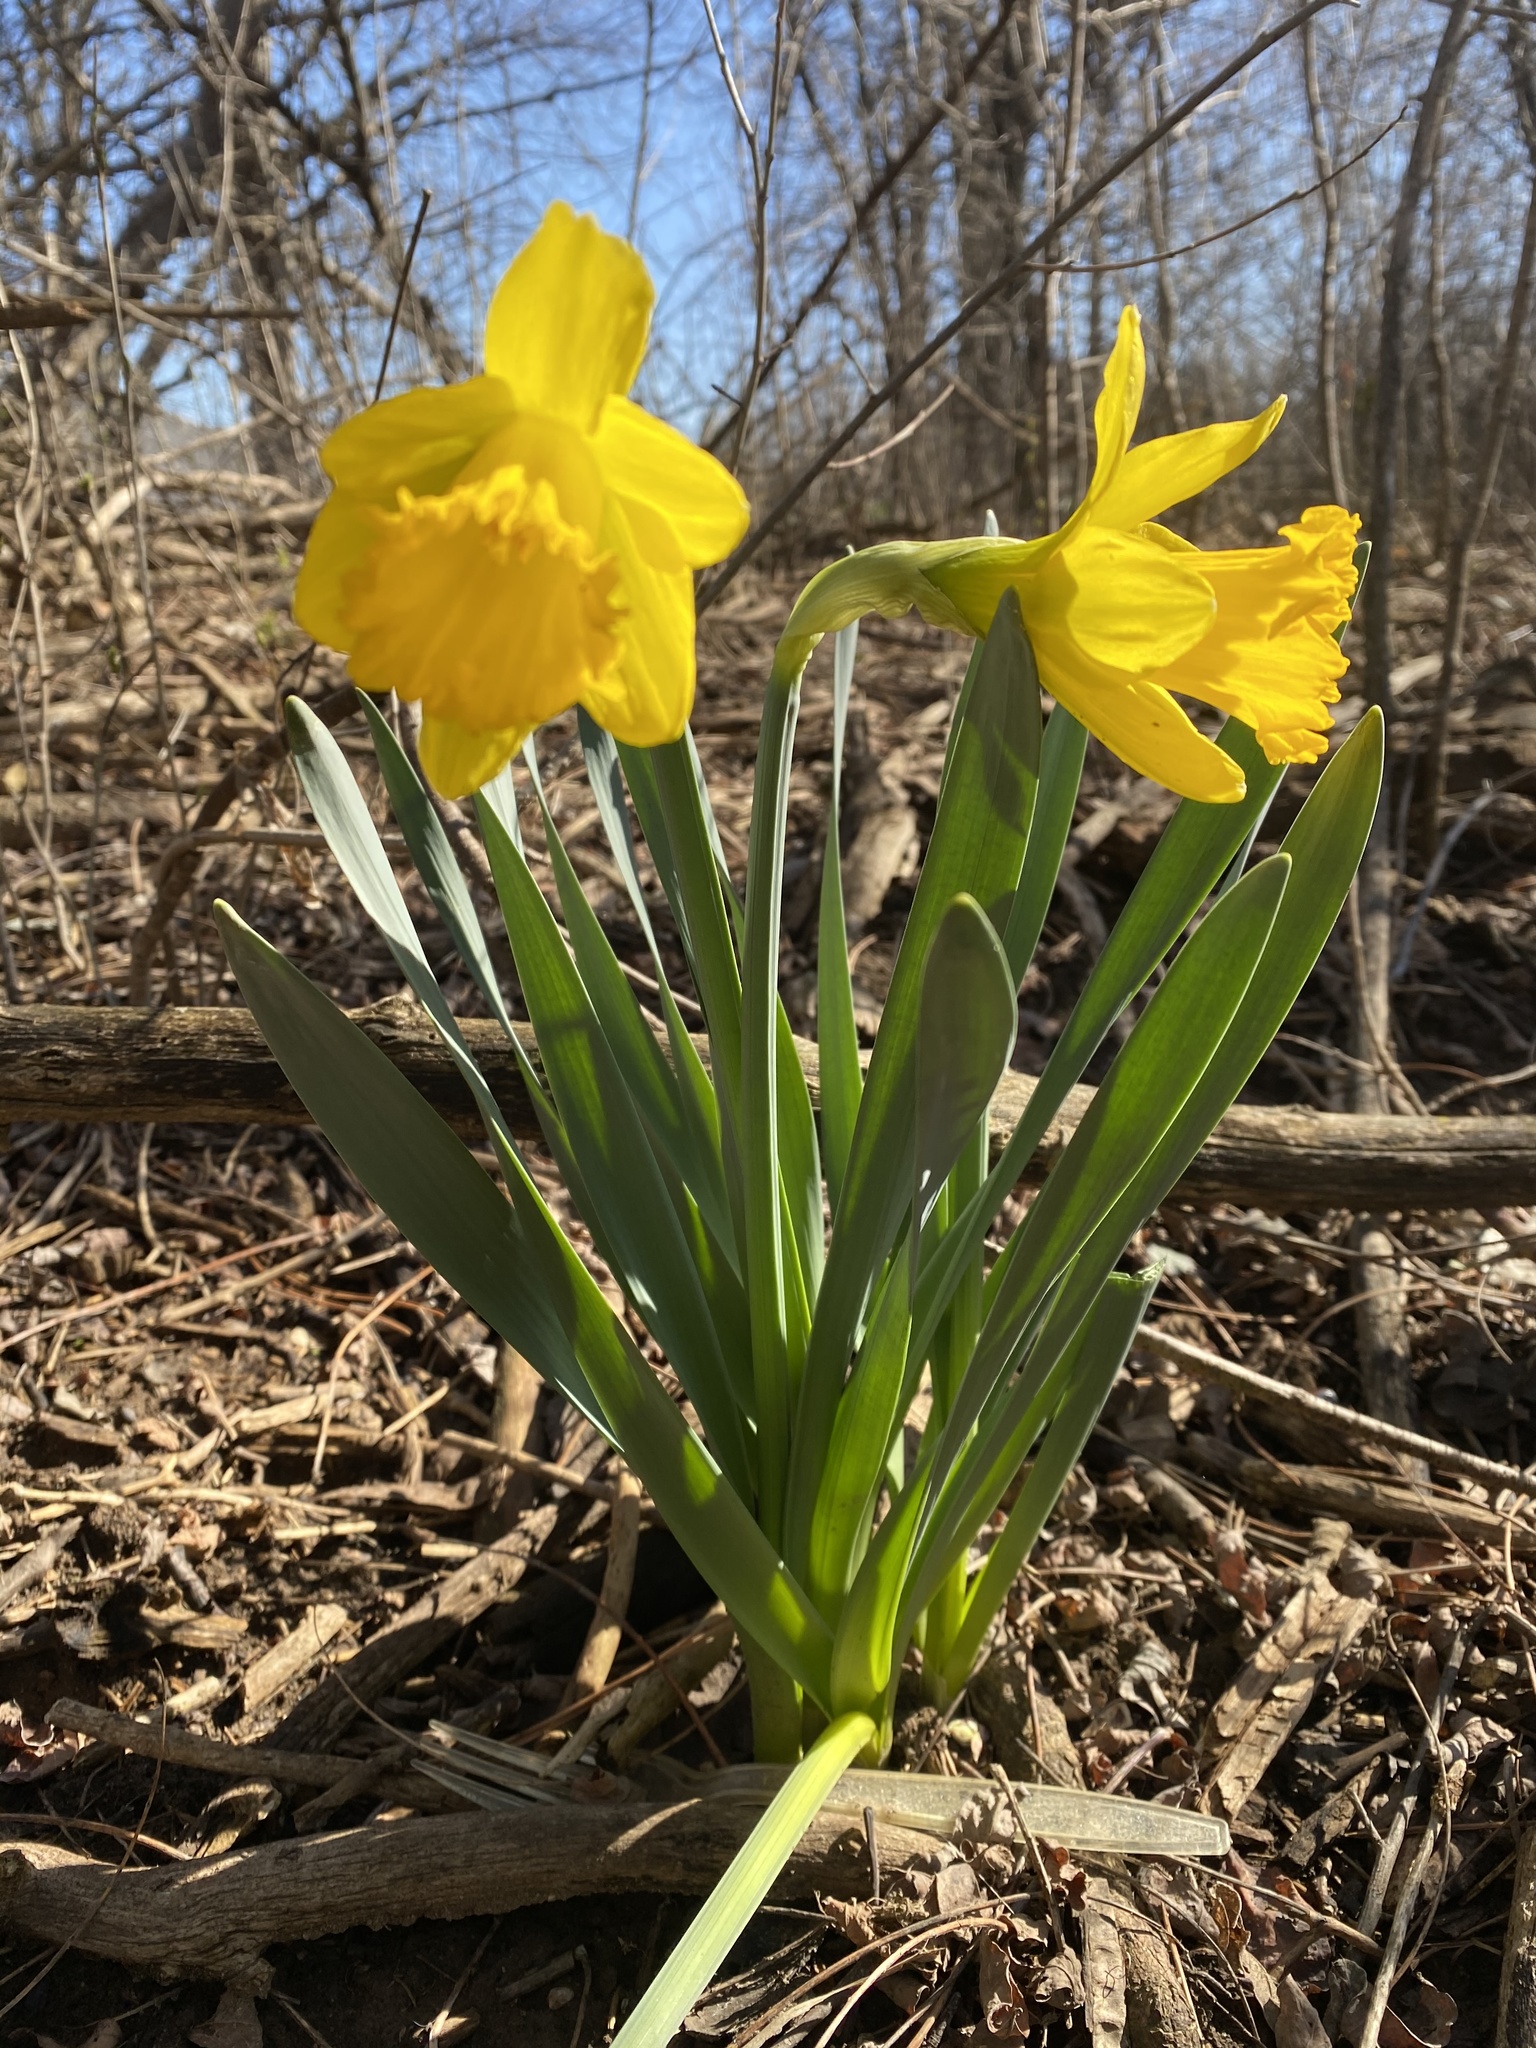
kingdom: Plantae
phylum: Tracheophyta
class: Liliopsida
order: Asparagales
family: Amaryllidaceae
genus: Narcissus
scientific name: Narcissus pseudonarcissus
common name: Daffodil
